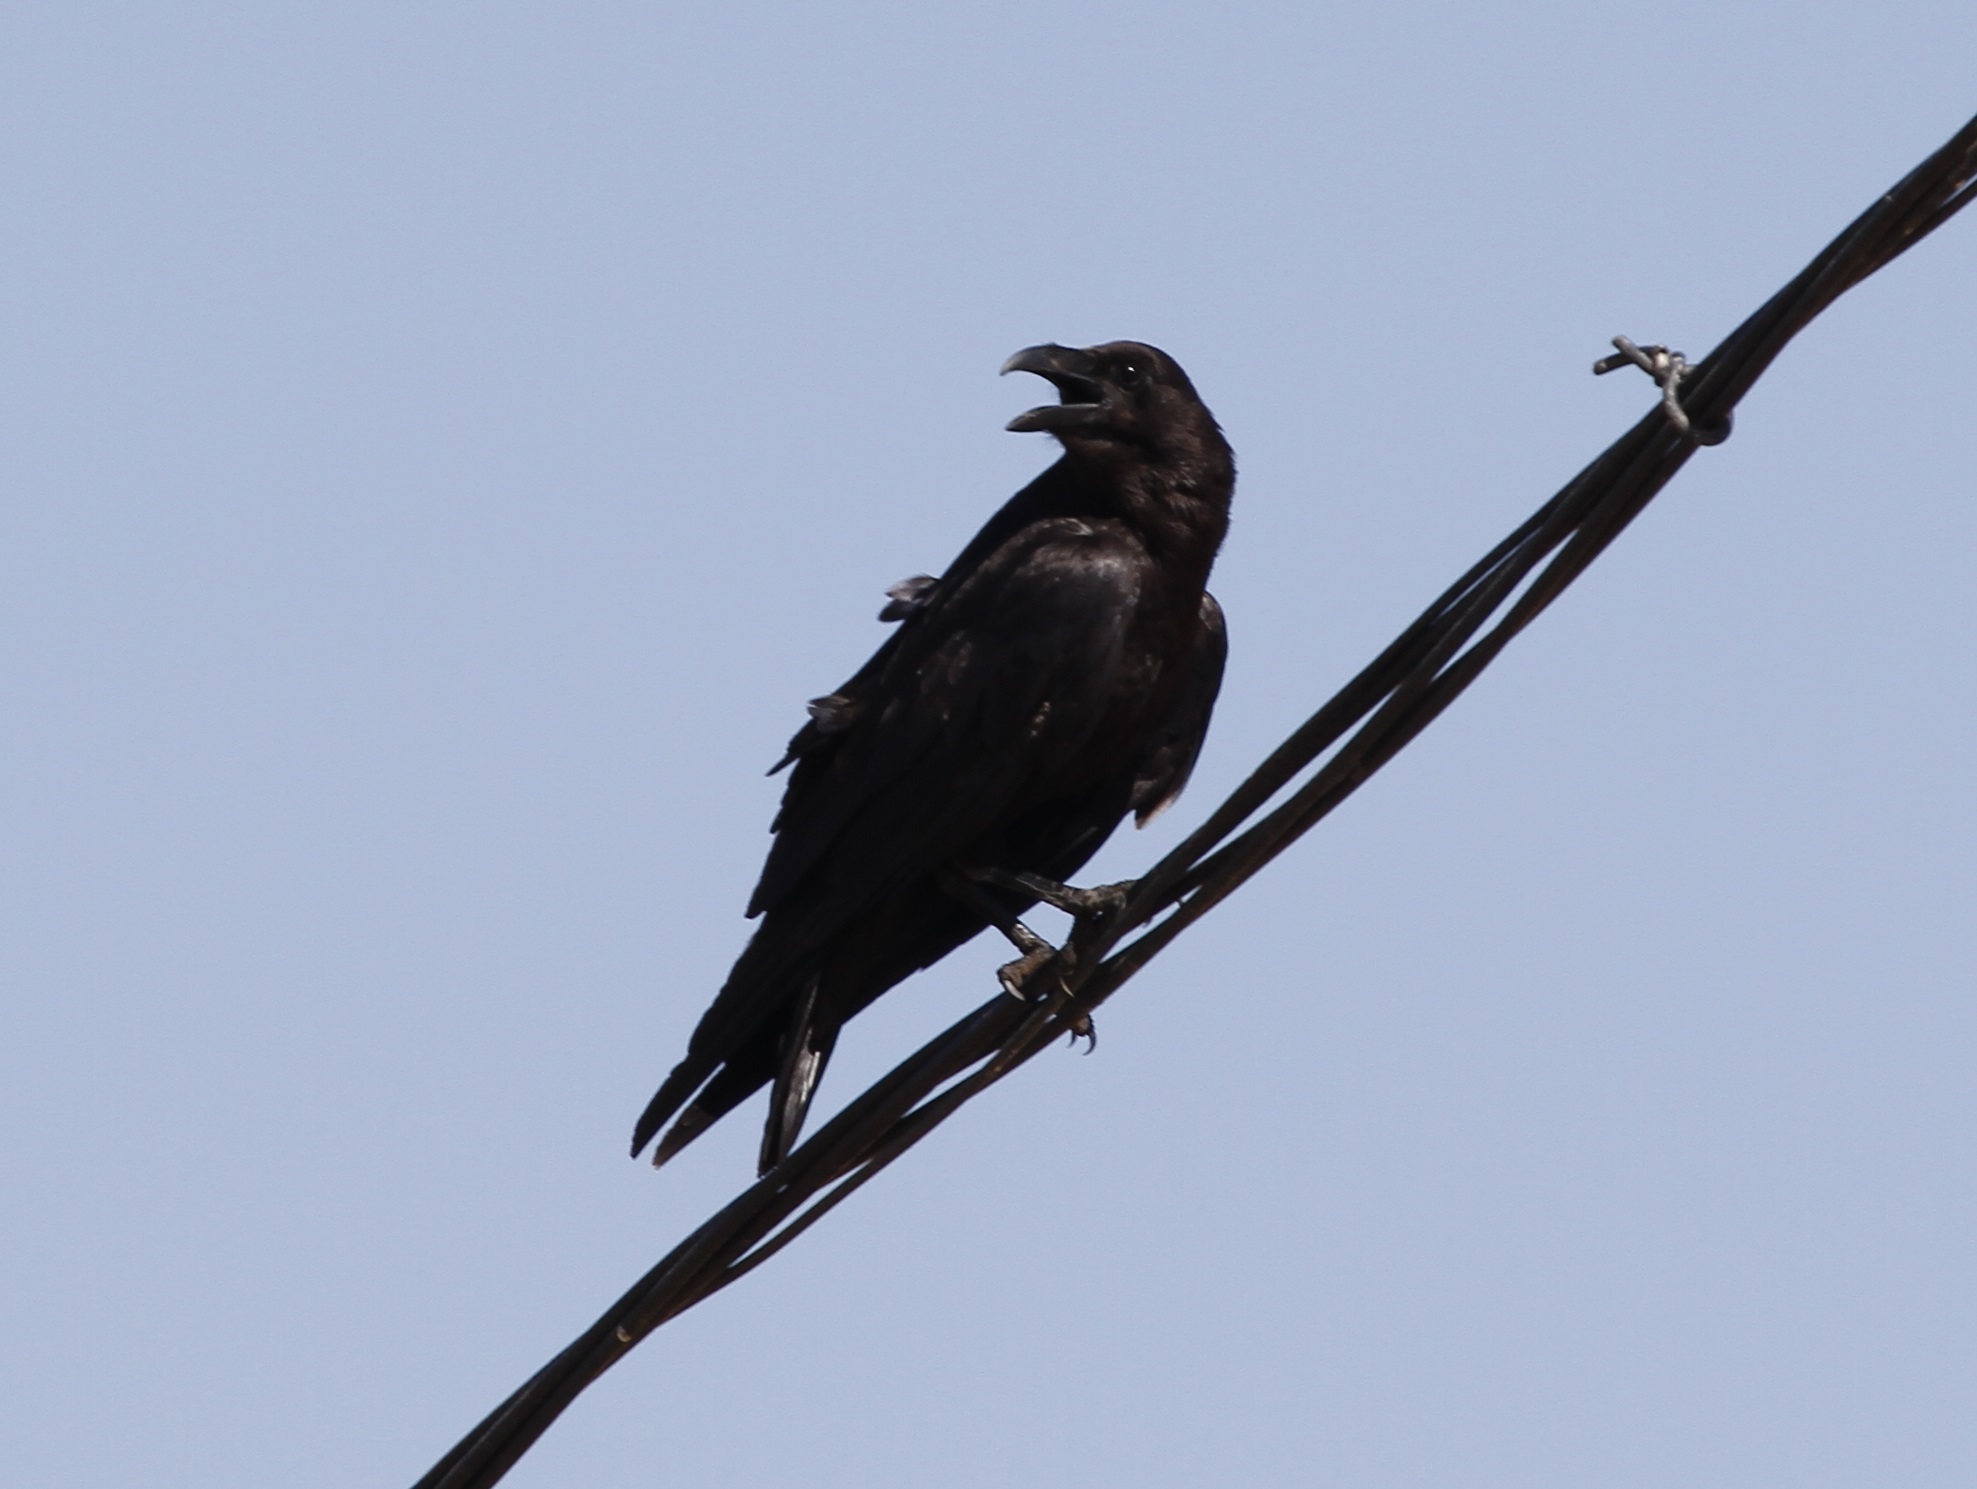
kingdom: Animalia
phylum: Chordata
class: Aves
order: Passeriformes
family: Corvidae
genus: Corvus
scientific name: Corvus corax
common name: Common raven
